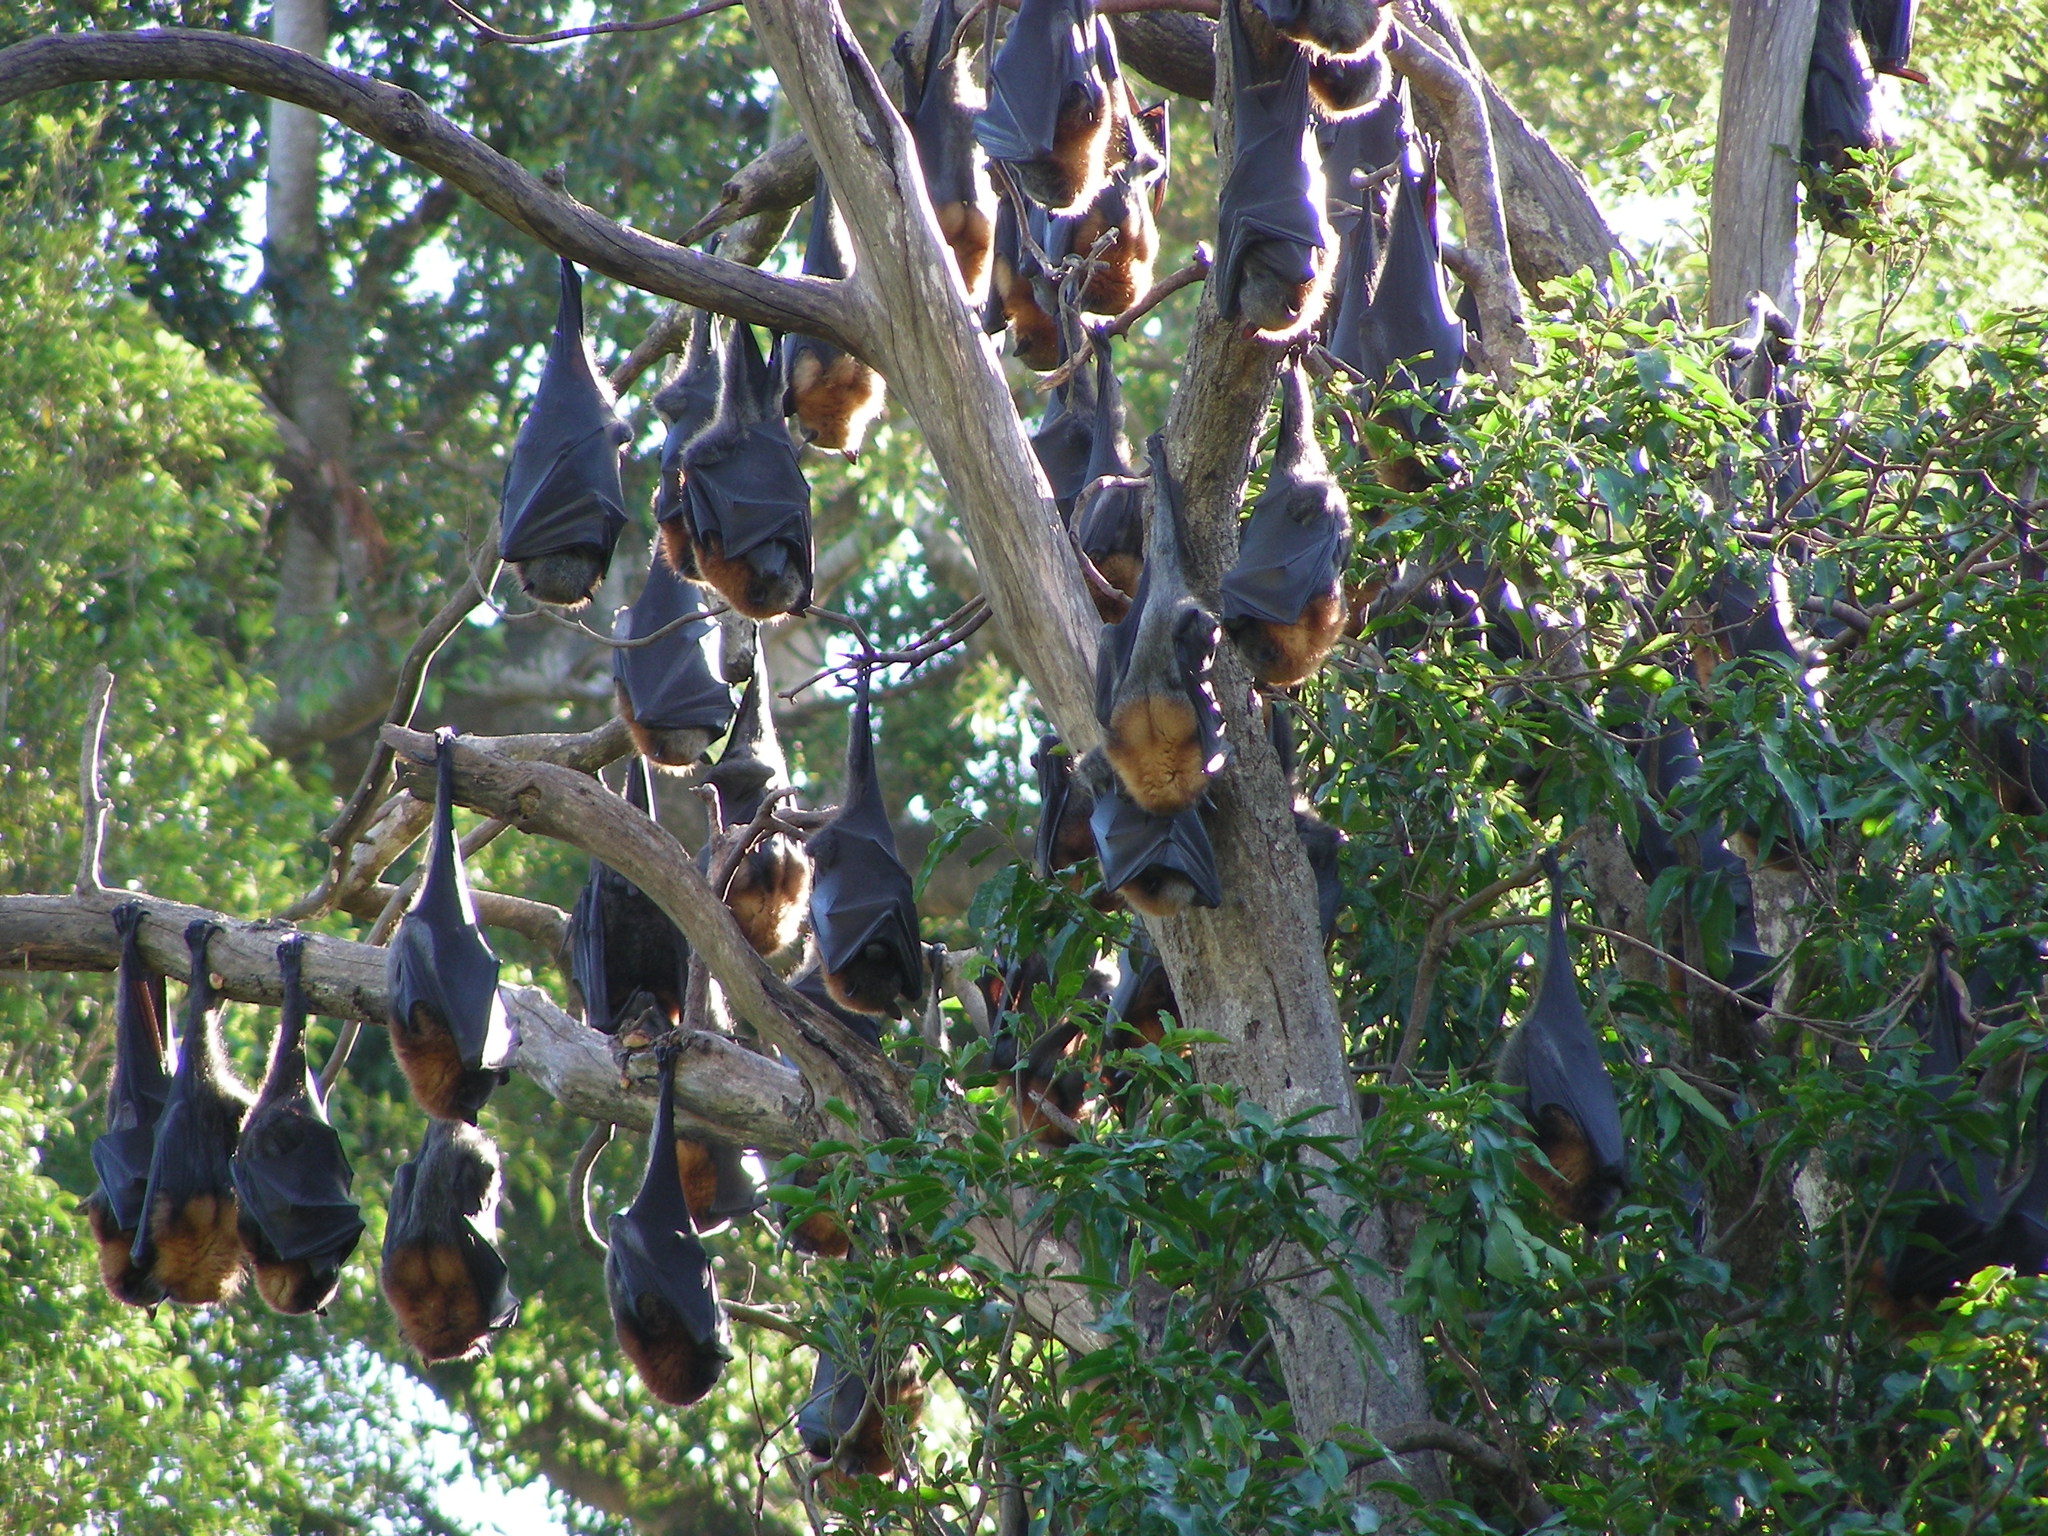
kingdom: Animalia
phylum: Chordata
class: Mammalia
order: Chiroptera
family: Pteropodidae
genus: Pteropus
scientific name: Pteropus poliocephalus
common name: Gray-headed flying fox
